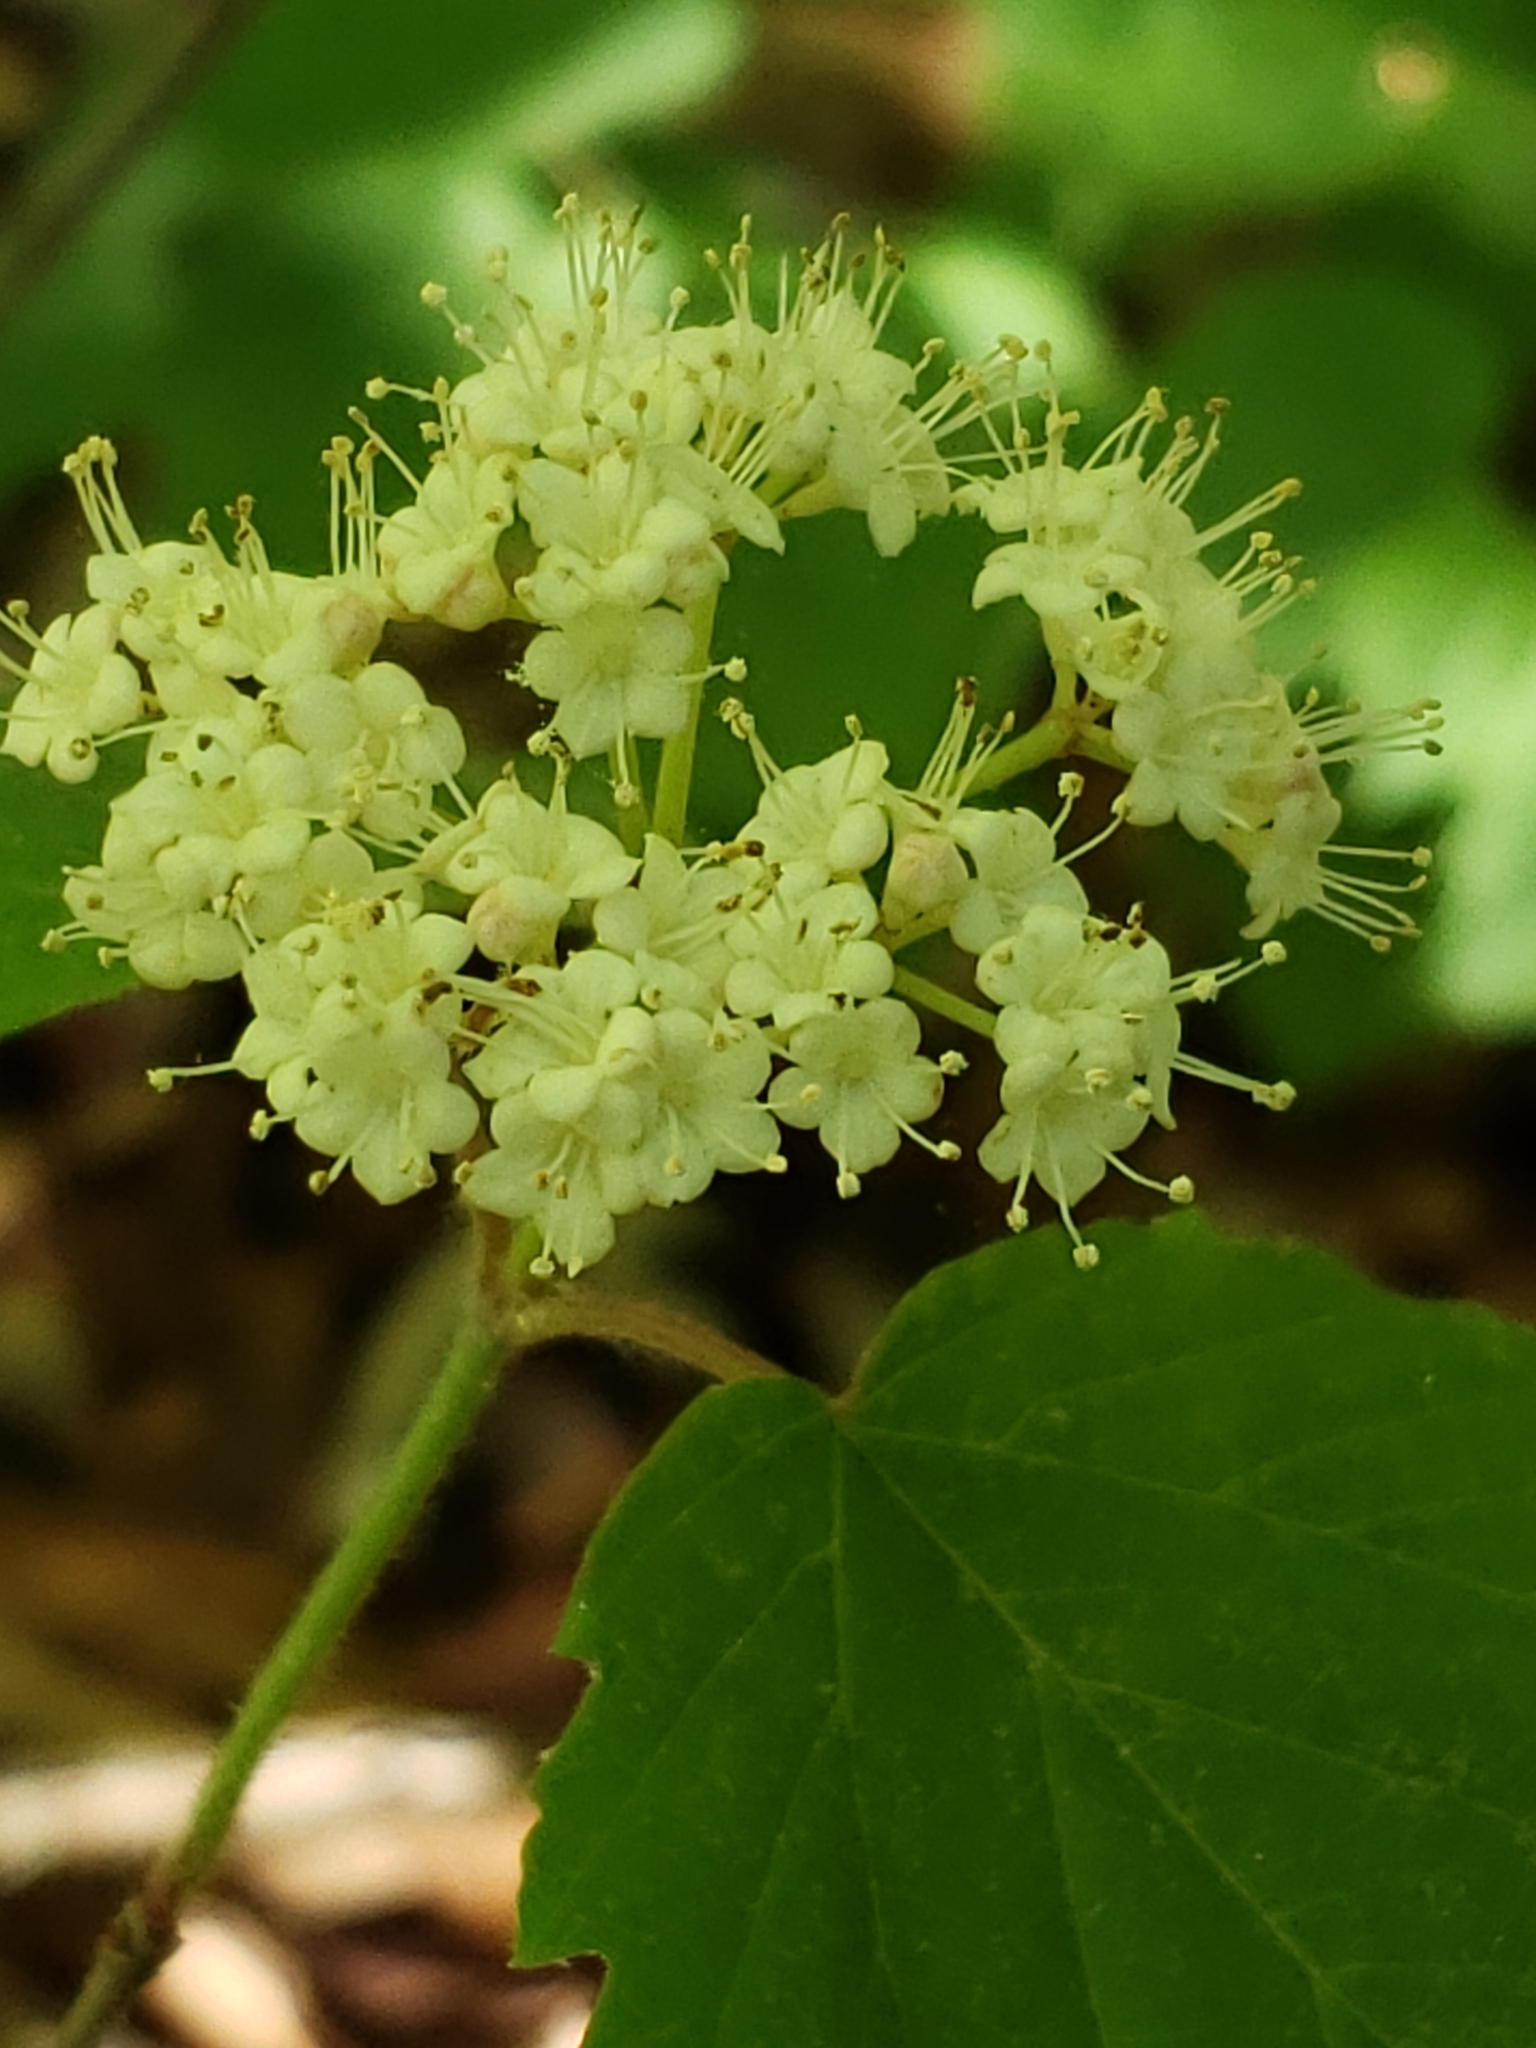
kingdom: Plantae
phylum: Tracheophyta
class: Magnoliopsida
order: Dipsacales
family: Viburnaceae
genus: Viburnum
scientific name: Viburnum acerifolium
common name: Dockmackie
